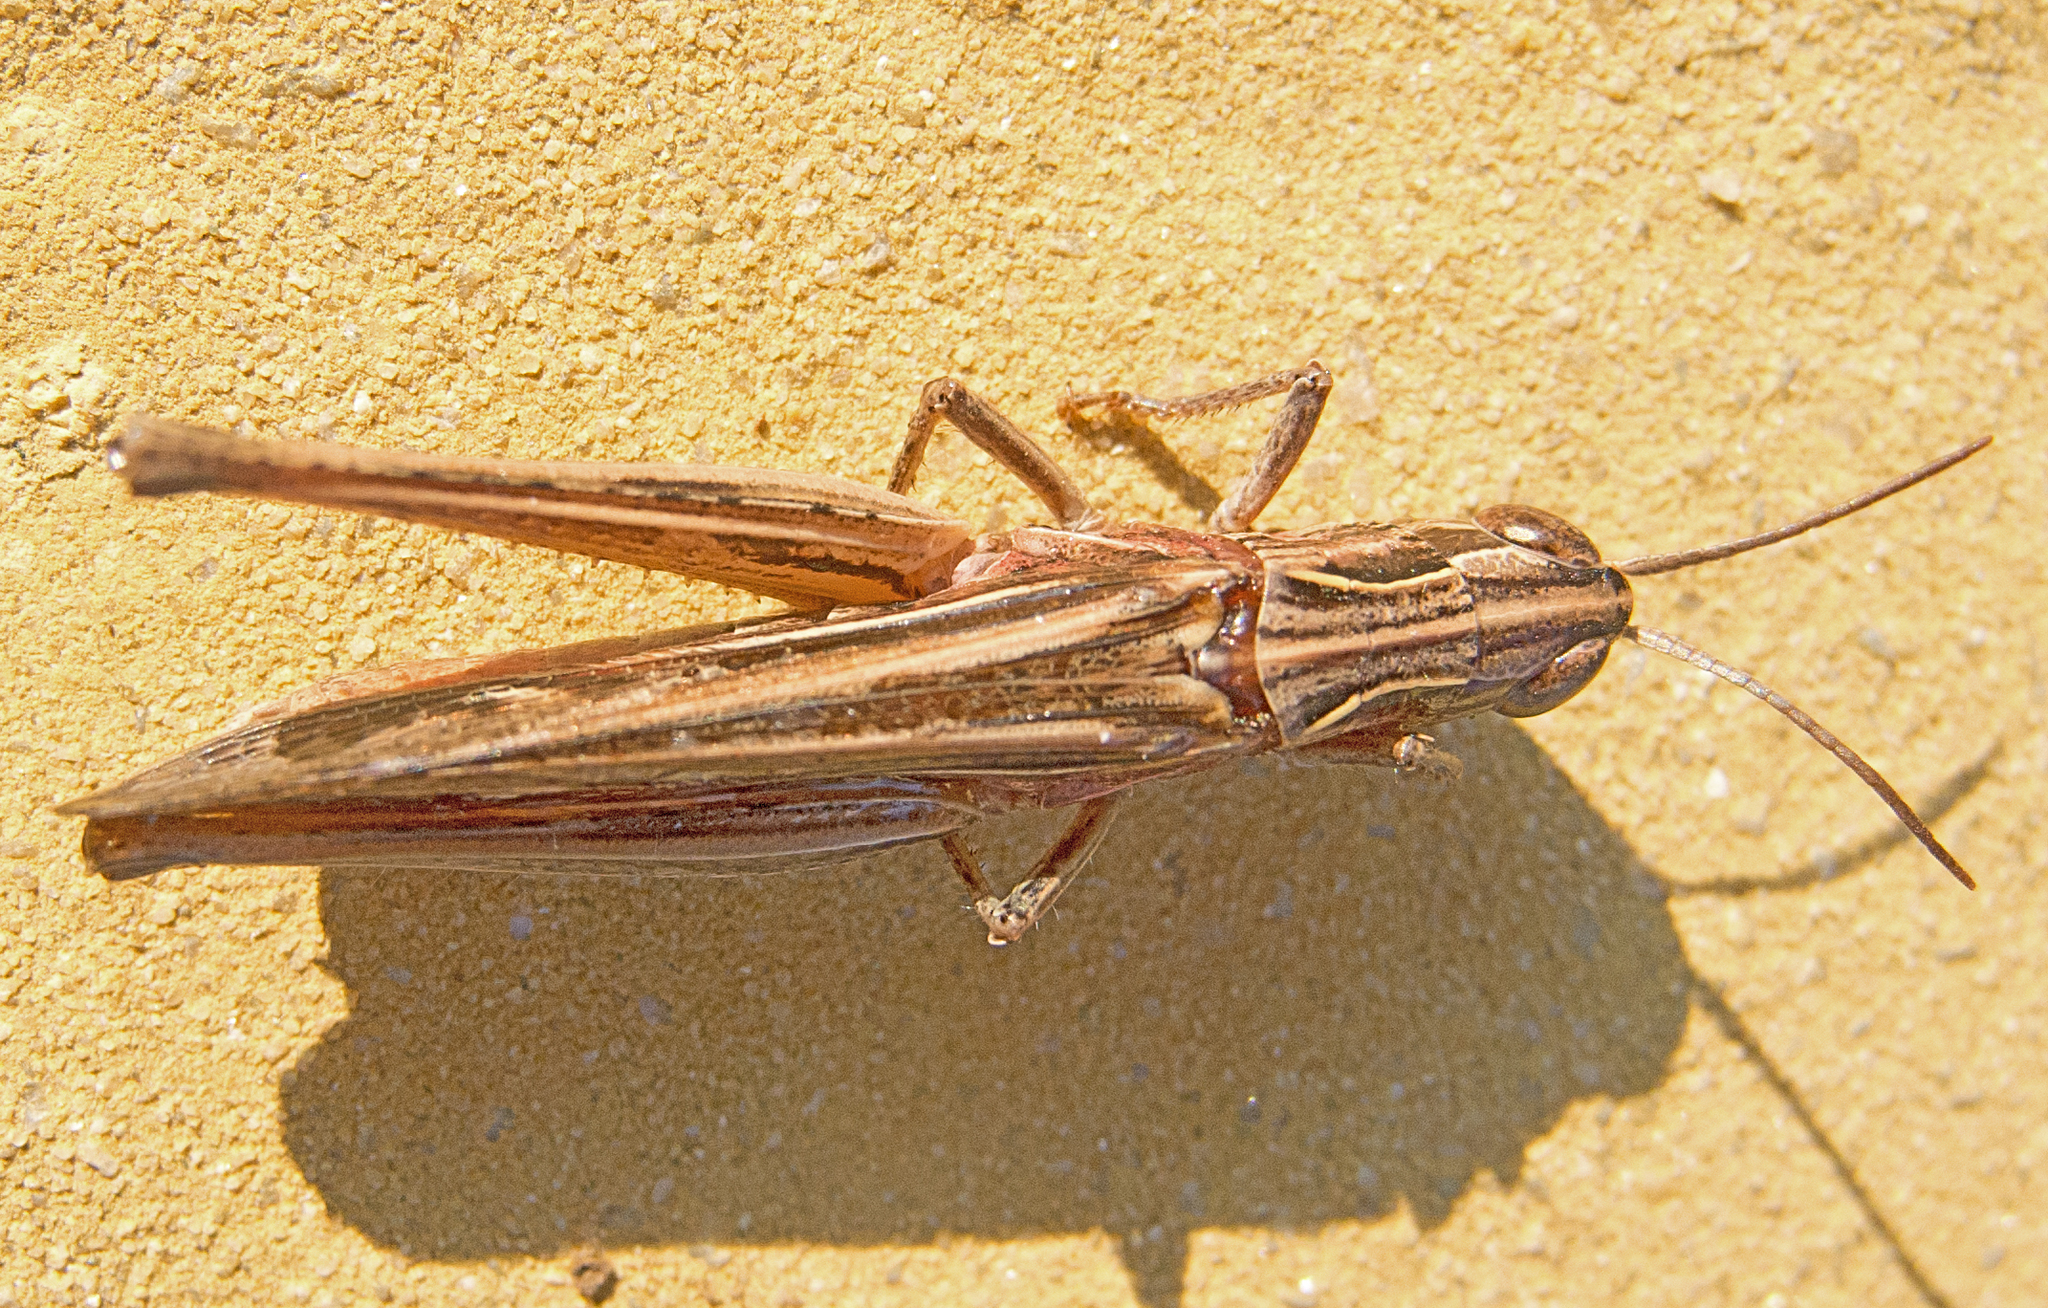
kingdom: Animalia
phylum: Arthropoda
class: Insecta
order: Orthoptera
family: Acrididae
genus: Chorthippus
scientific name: Chorthippus loratus
